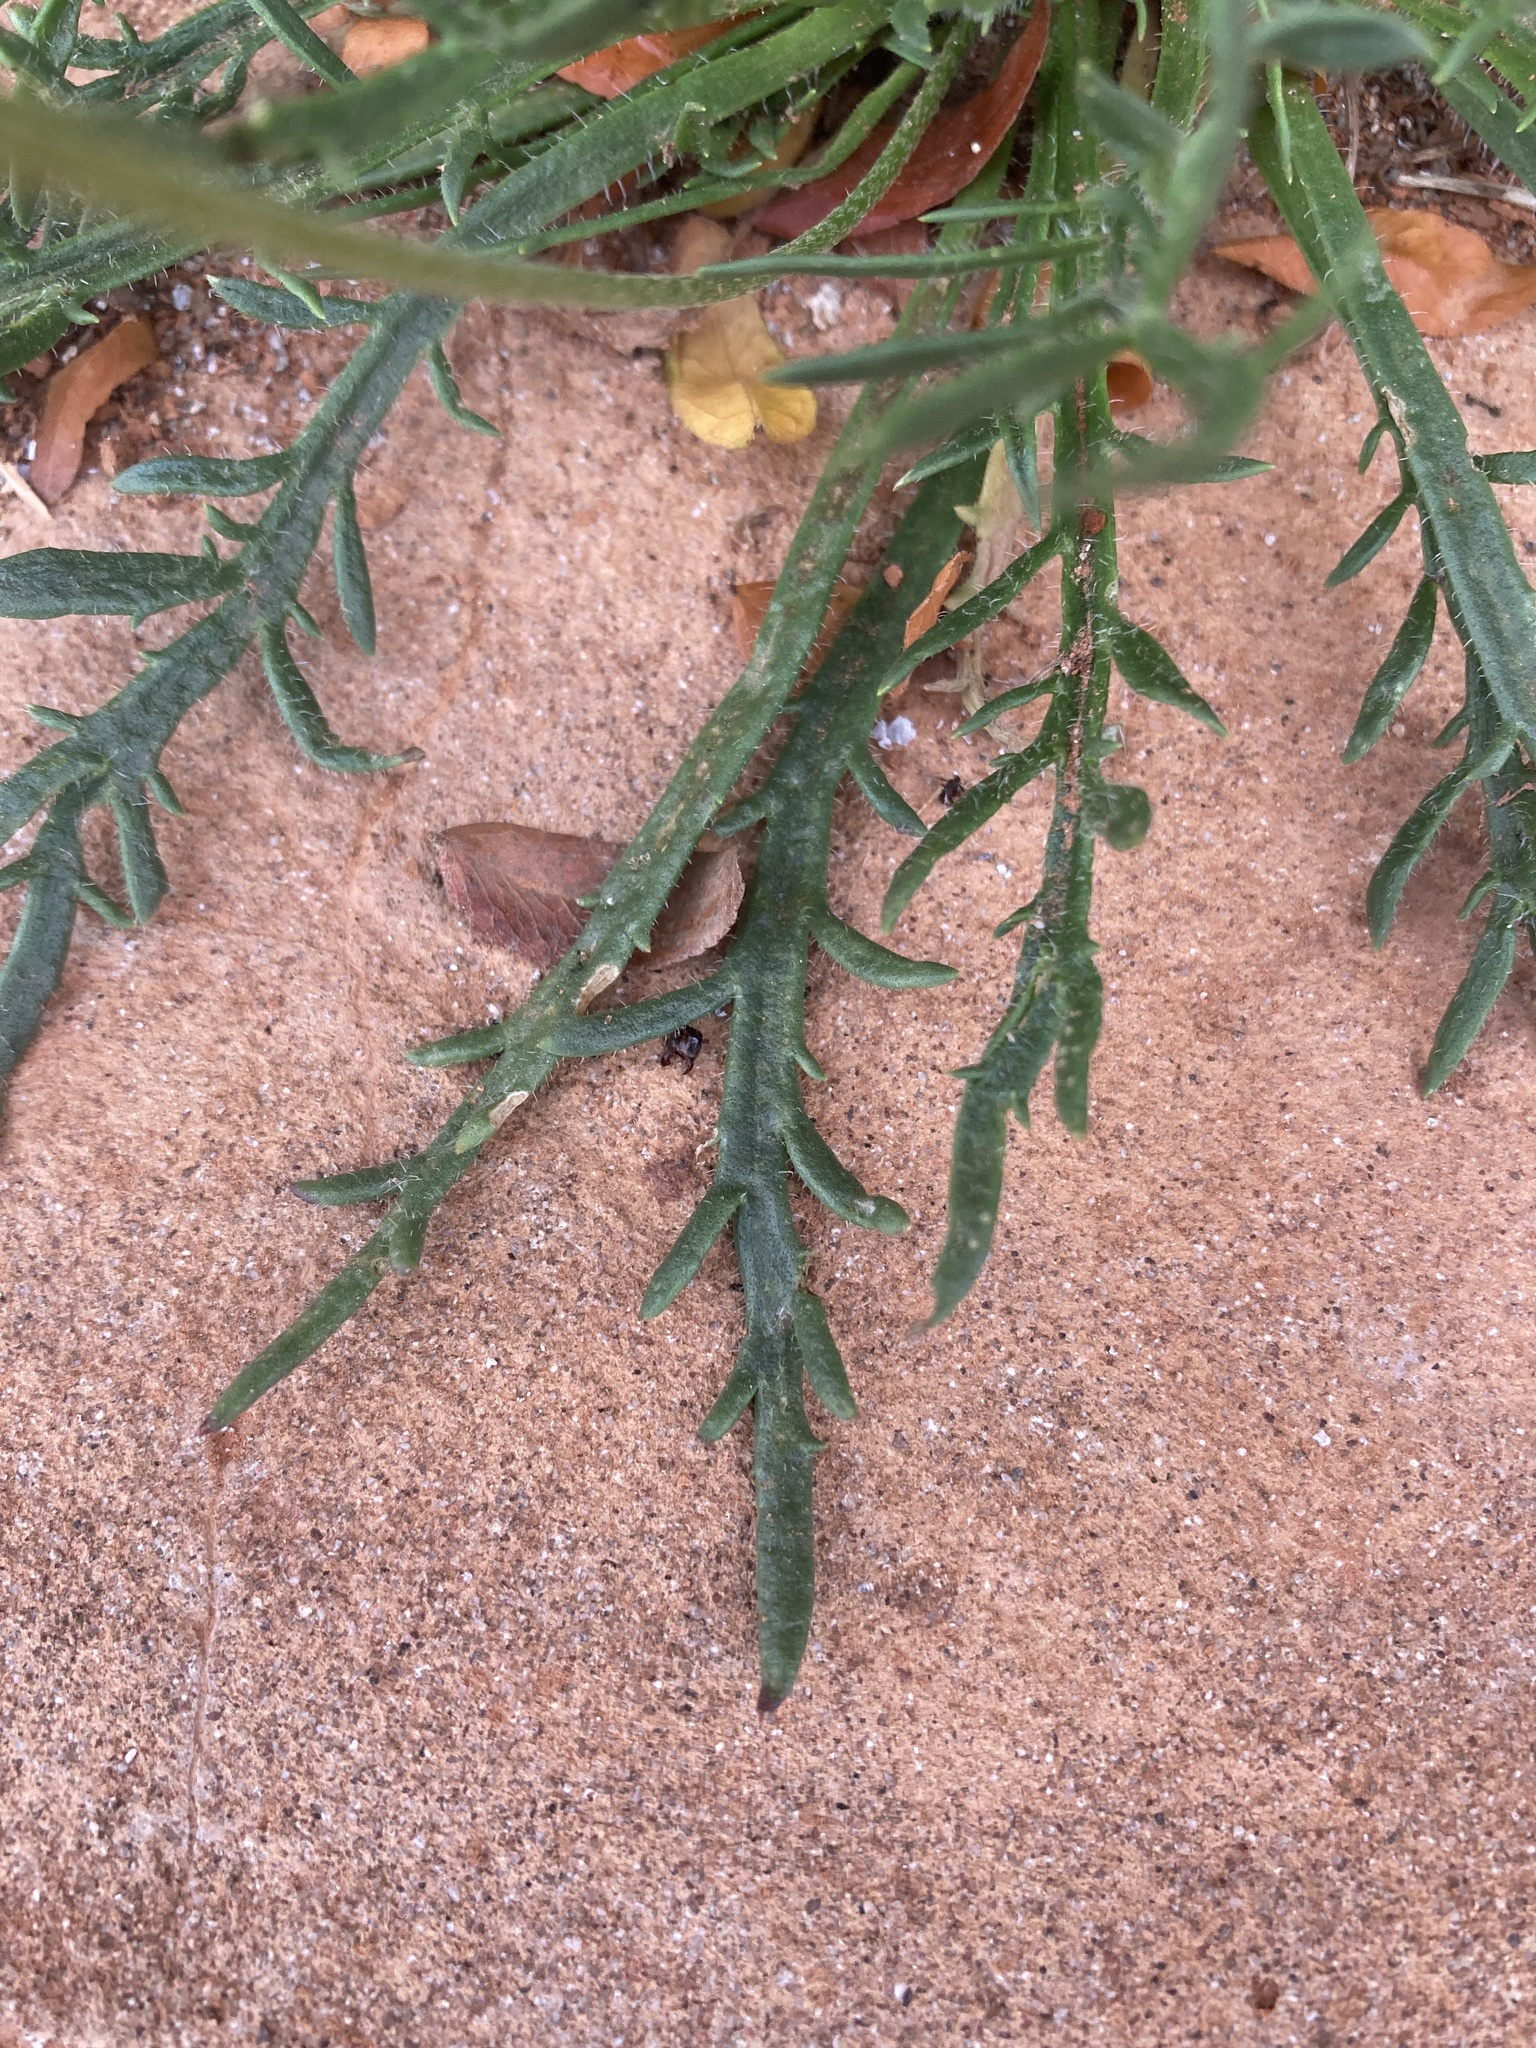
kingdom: Plantae
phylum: Tracheophyta
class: Magnoliopsida
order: Lamiales
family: Plantaginaceae
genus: Plantago
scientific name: Plantago coronopus
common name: Buck's-horn plantain
